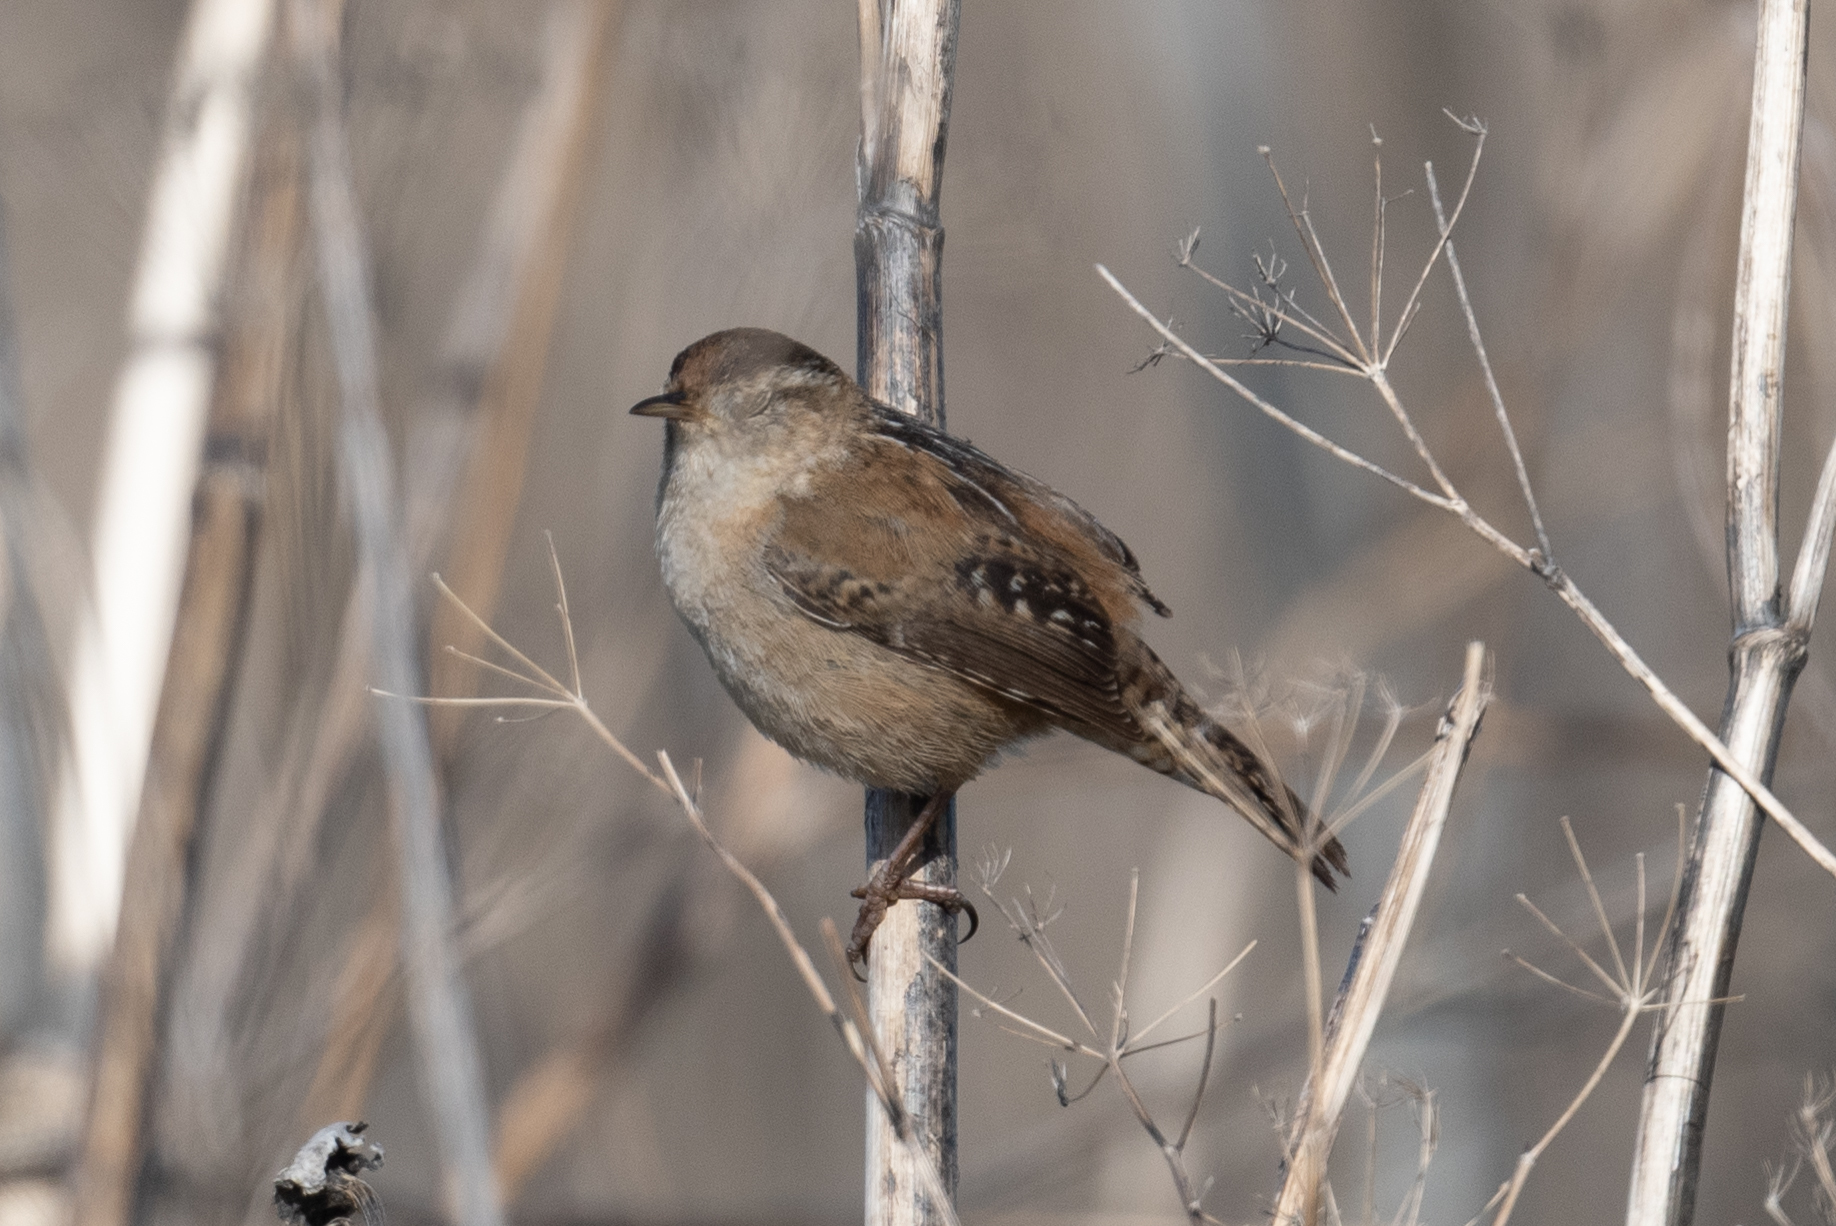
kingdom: Animalia
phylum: Chordata
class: Aves
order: Passeriformes
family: Troglodytidae
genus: Cistothorus
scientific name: Cistothorus palustris
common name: Marsh wren
